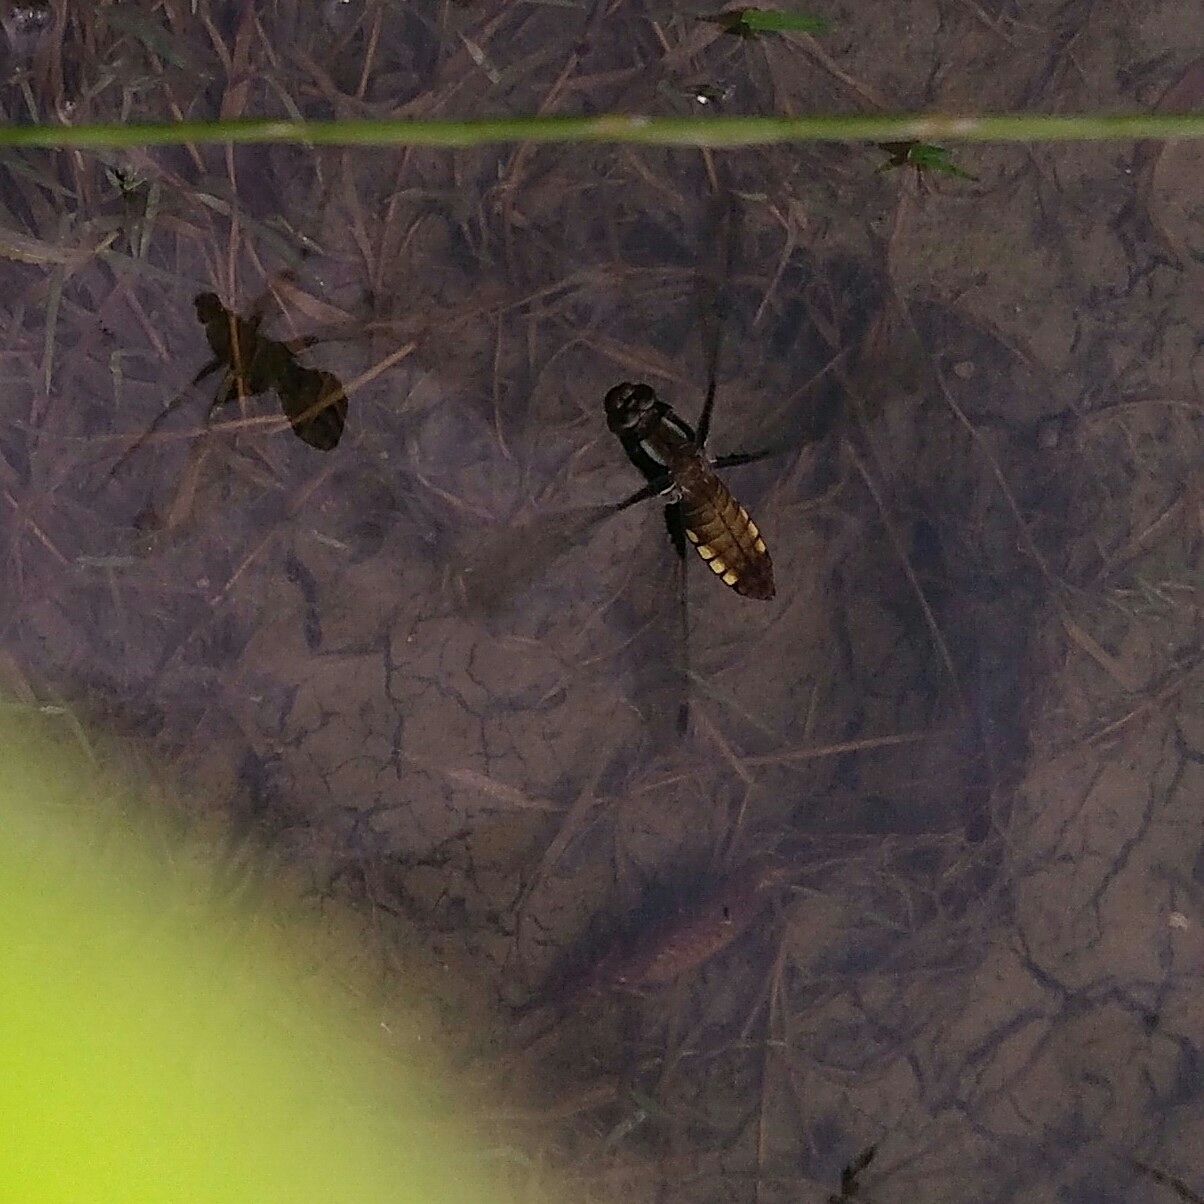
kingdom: Animalia
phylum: Arthropoda
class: Insecta
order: Odonata
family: Libellulidae
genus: Libellula
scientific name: Libellula depressa
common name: Broad-bodied chaser
